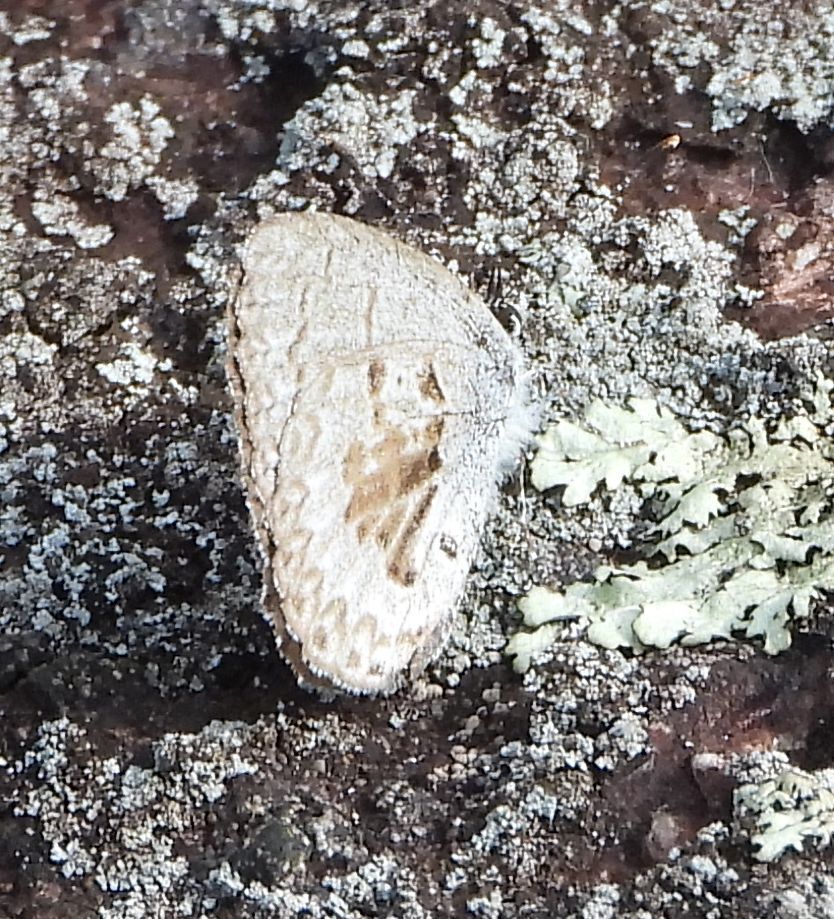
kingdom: Animalia
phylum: Arthropoda
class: Insecta
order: Lepidoptera
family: Lycaenidae
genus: Celastrina
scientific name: Celastrina lucia
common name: Lucia azure
